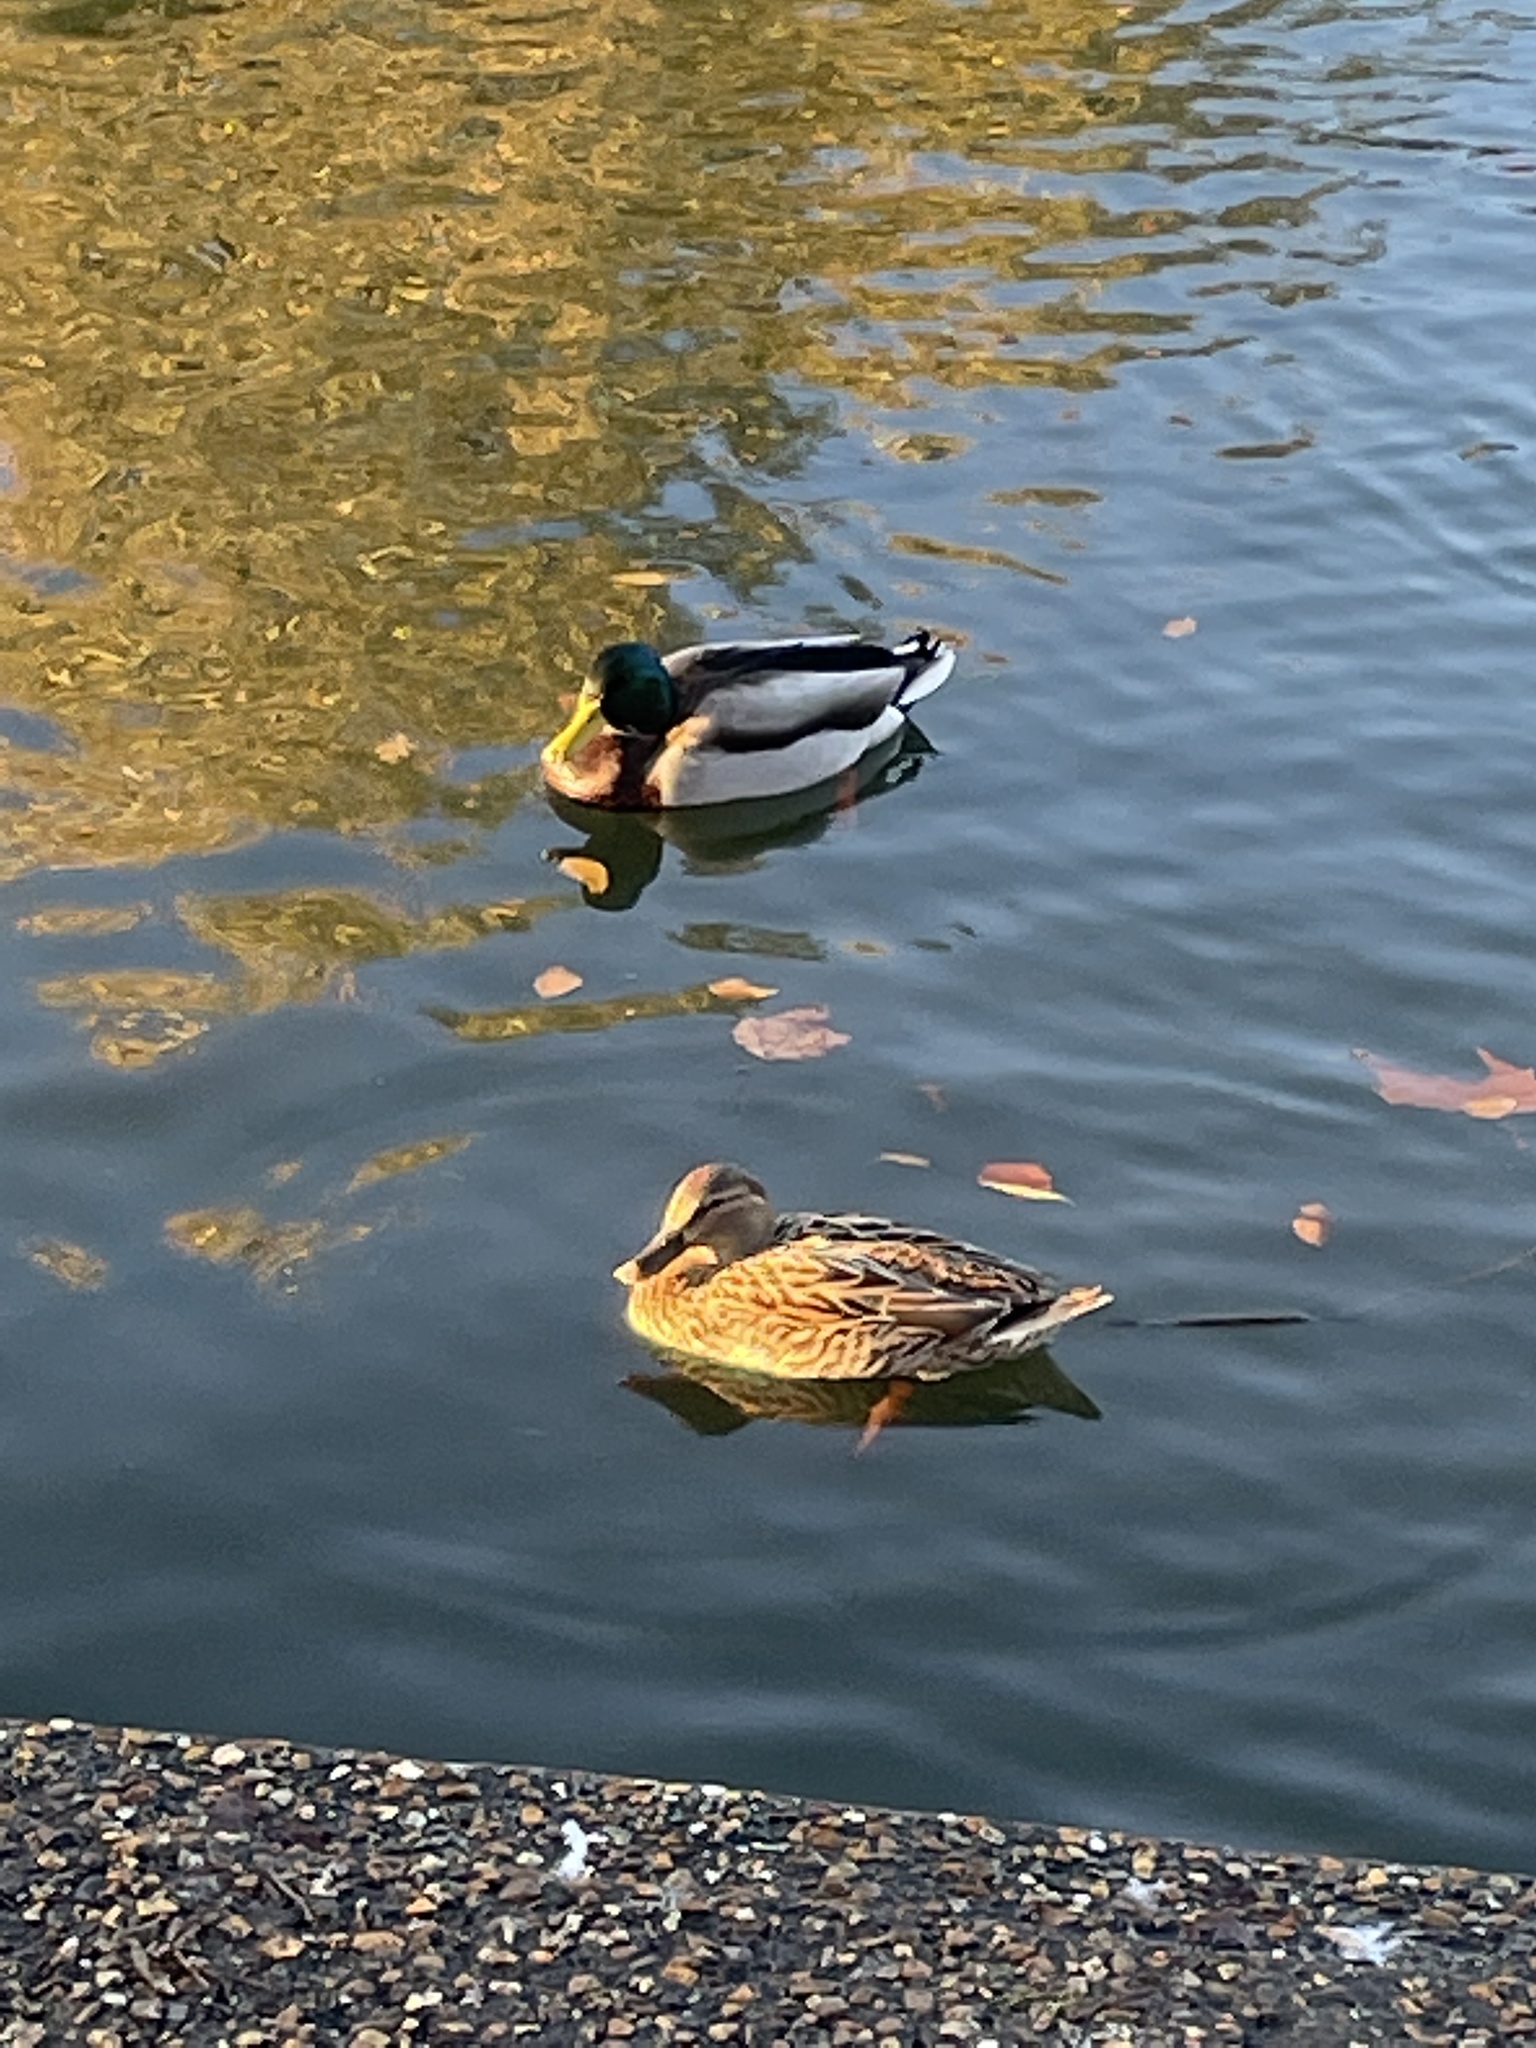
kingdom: Animalia
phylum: Chordata
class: Aves
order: Anseriformes
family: Anatidae
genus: Anas
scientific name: Anas platyrhynchos
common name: Mallard
